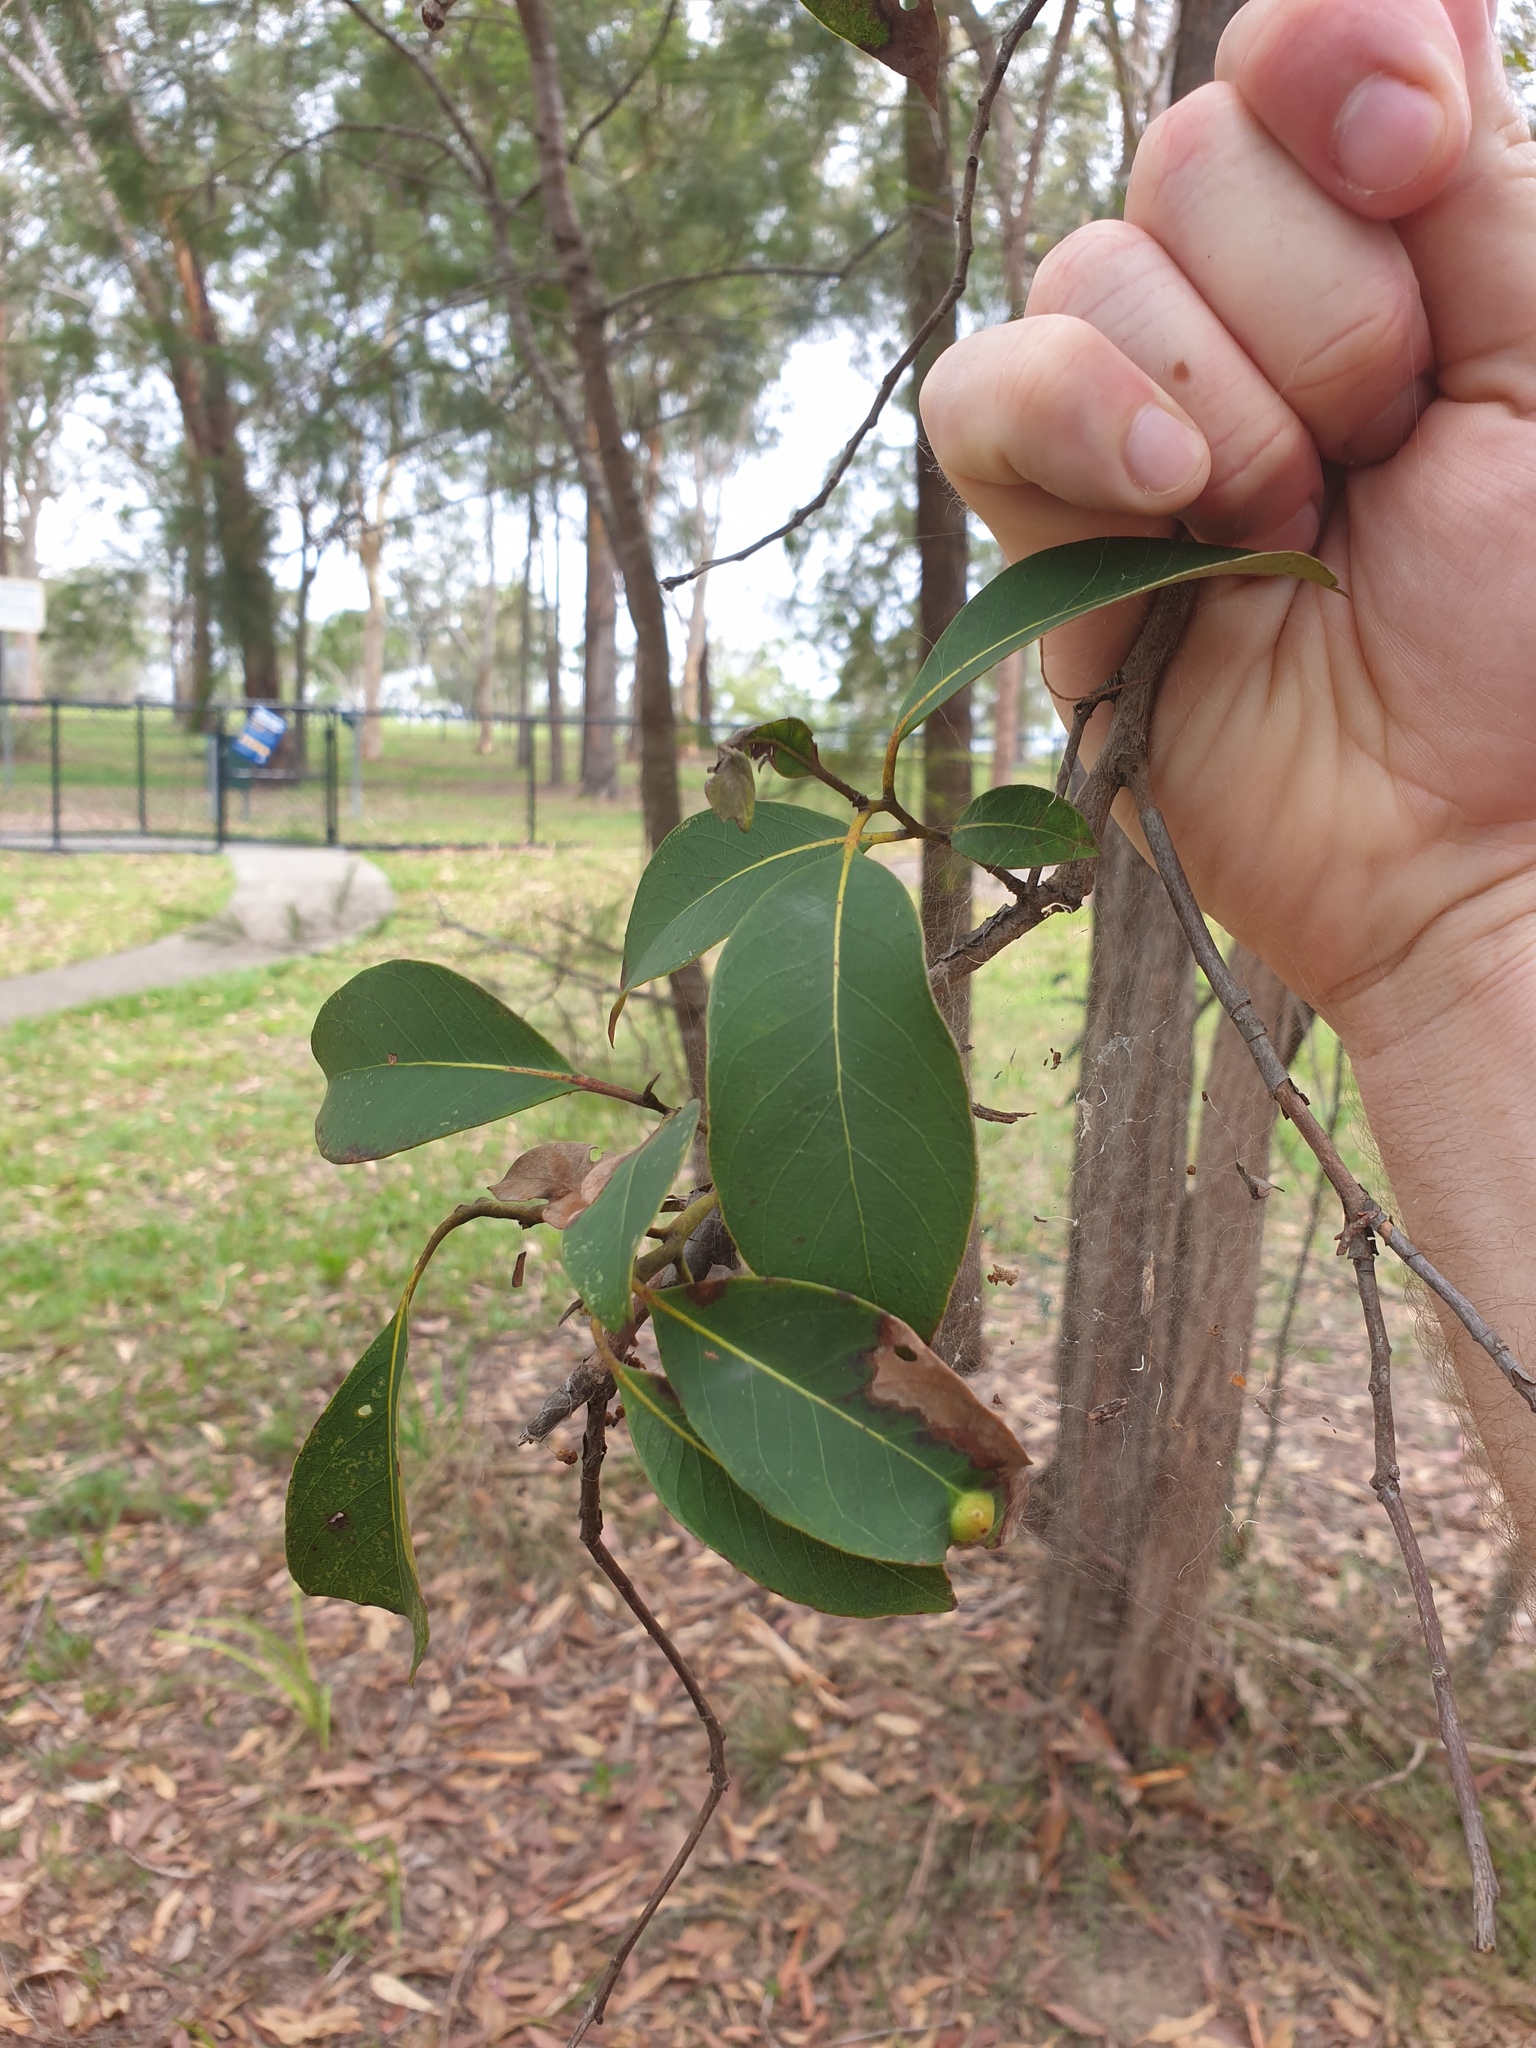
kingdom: Plantae
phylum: Tracheophyta
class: Magnoliopsida
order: Myrtales
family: Myrtaceae
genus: Lophostemon
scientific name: Lophostemon suaveolens
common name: Paperbark-mahogany
